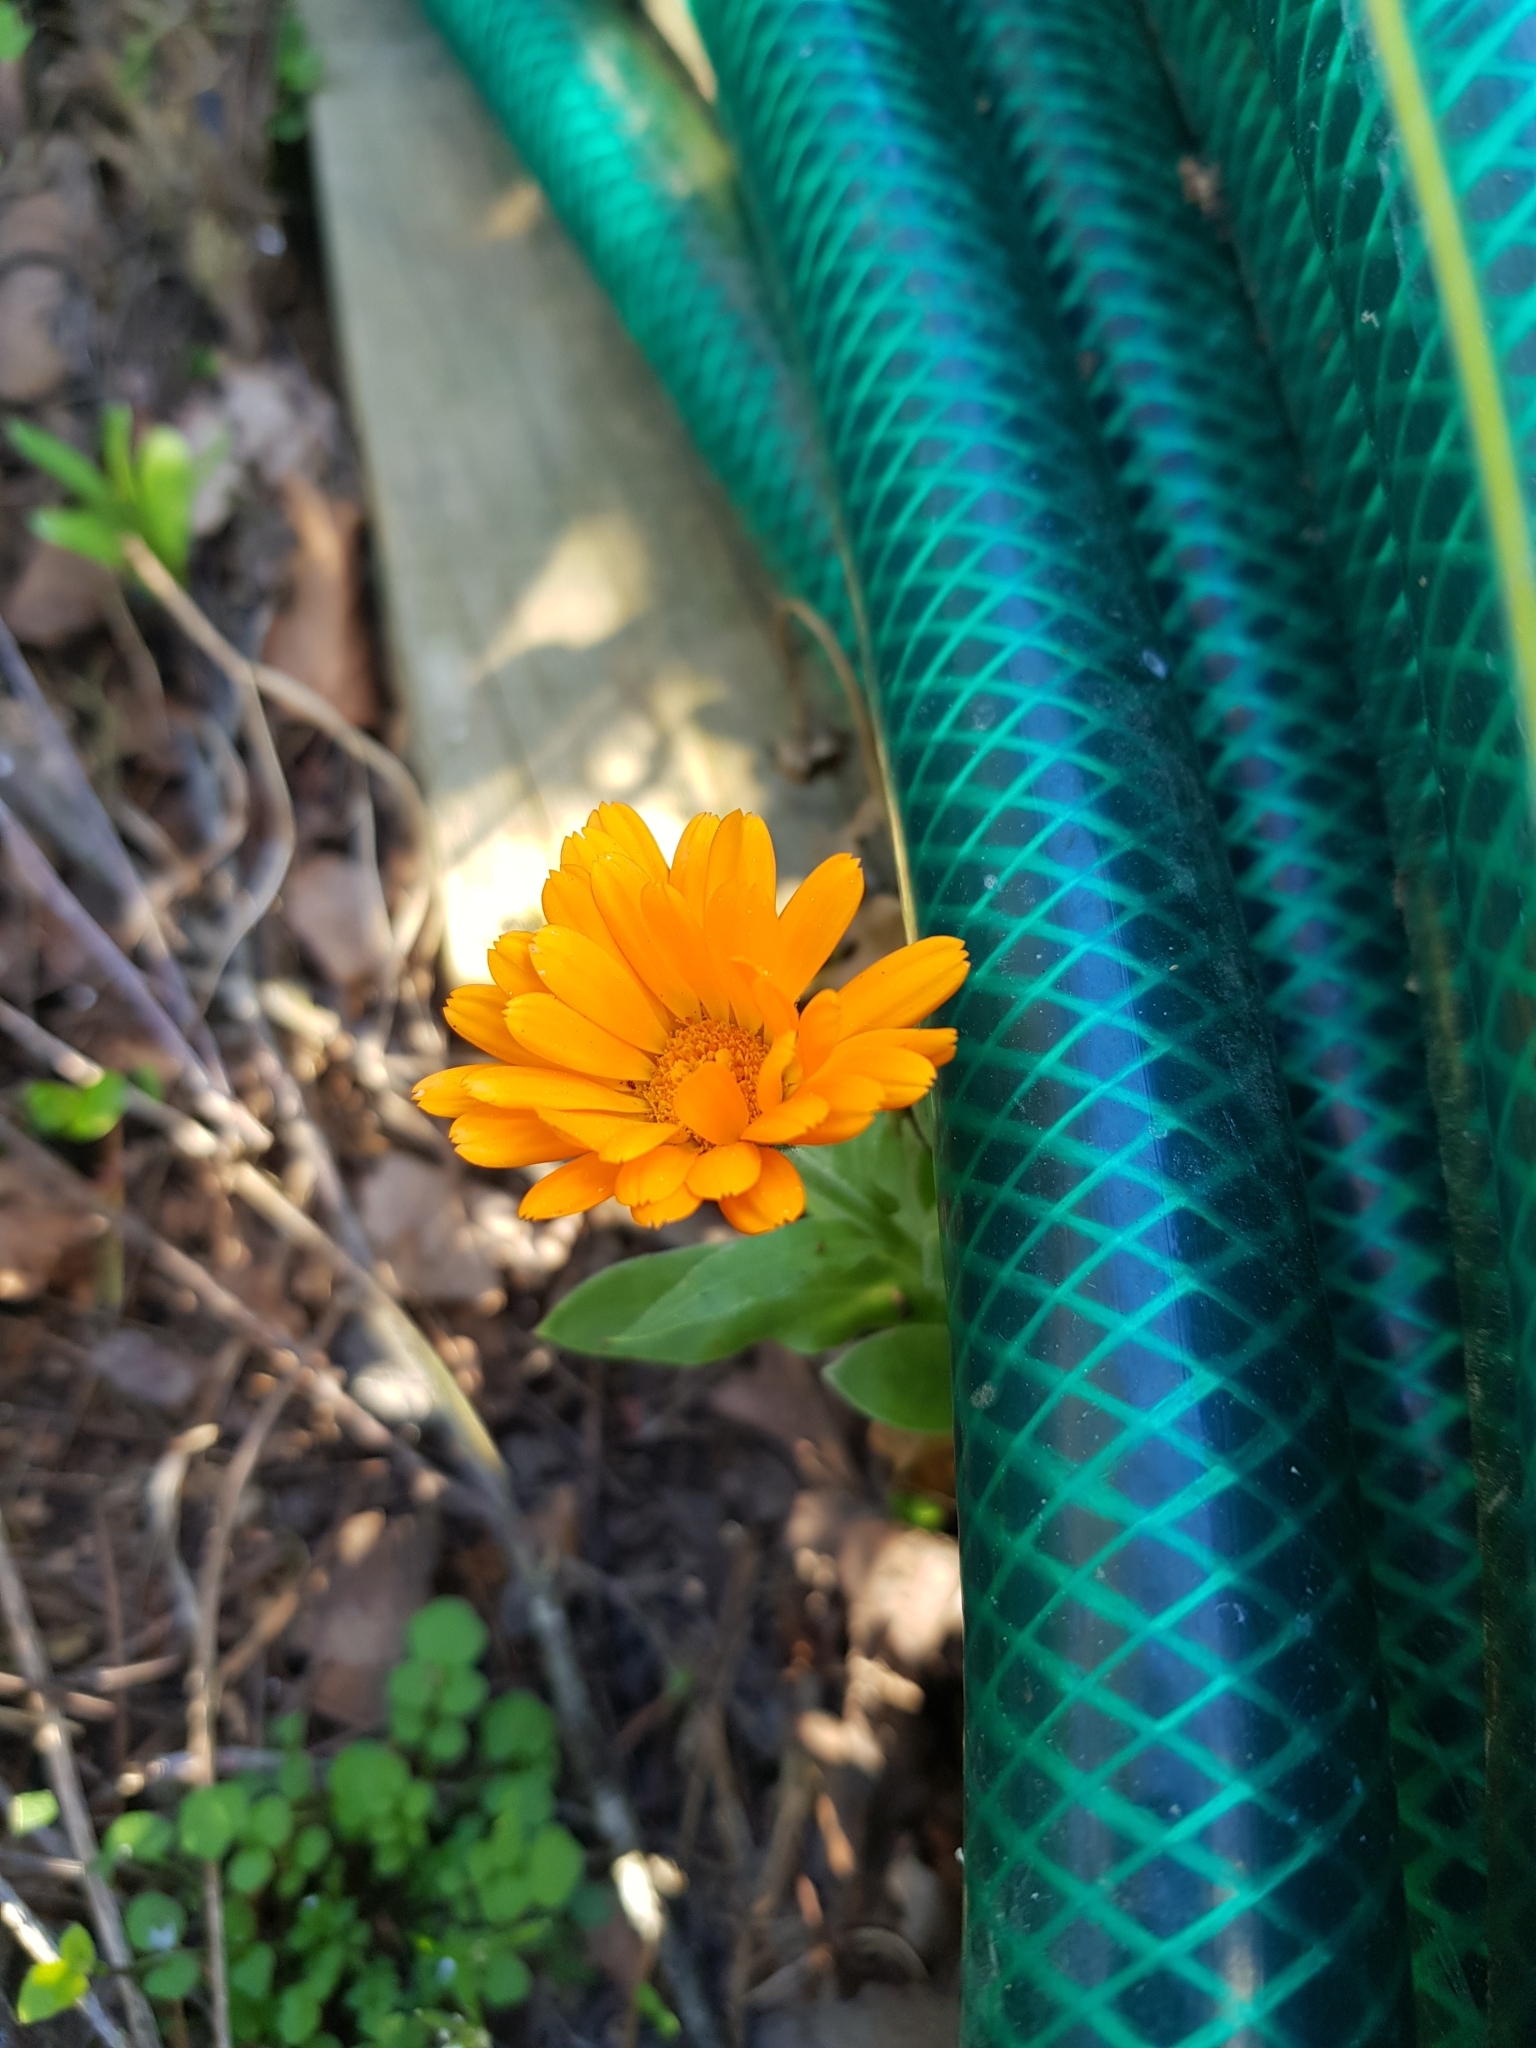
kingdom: Plantae
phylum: Tracheophyta
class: Magnoliopsida
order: Asterales
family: Asteraceae
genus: Calendula
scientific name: Calendula officinalis
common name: Pot marigold
